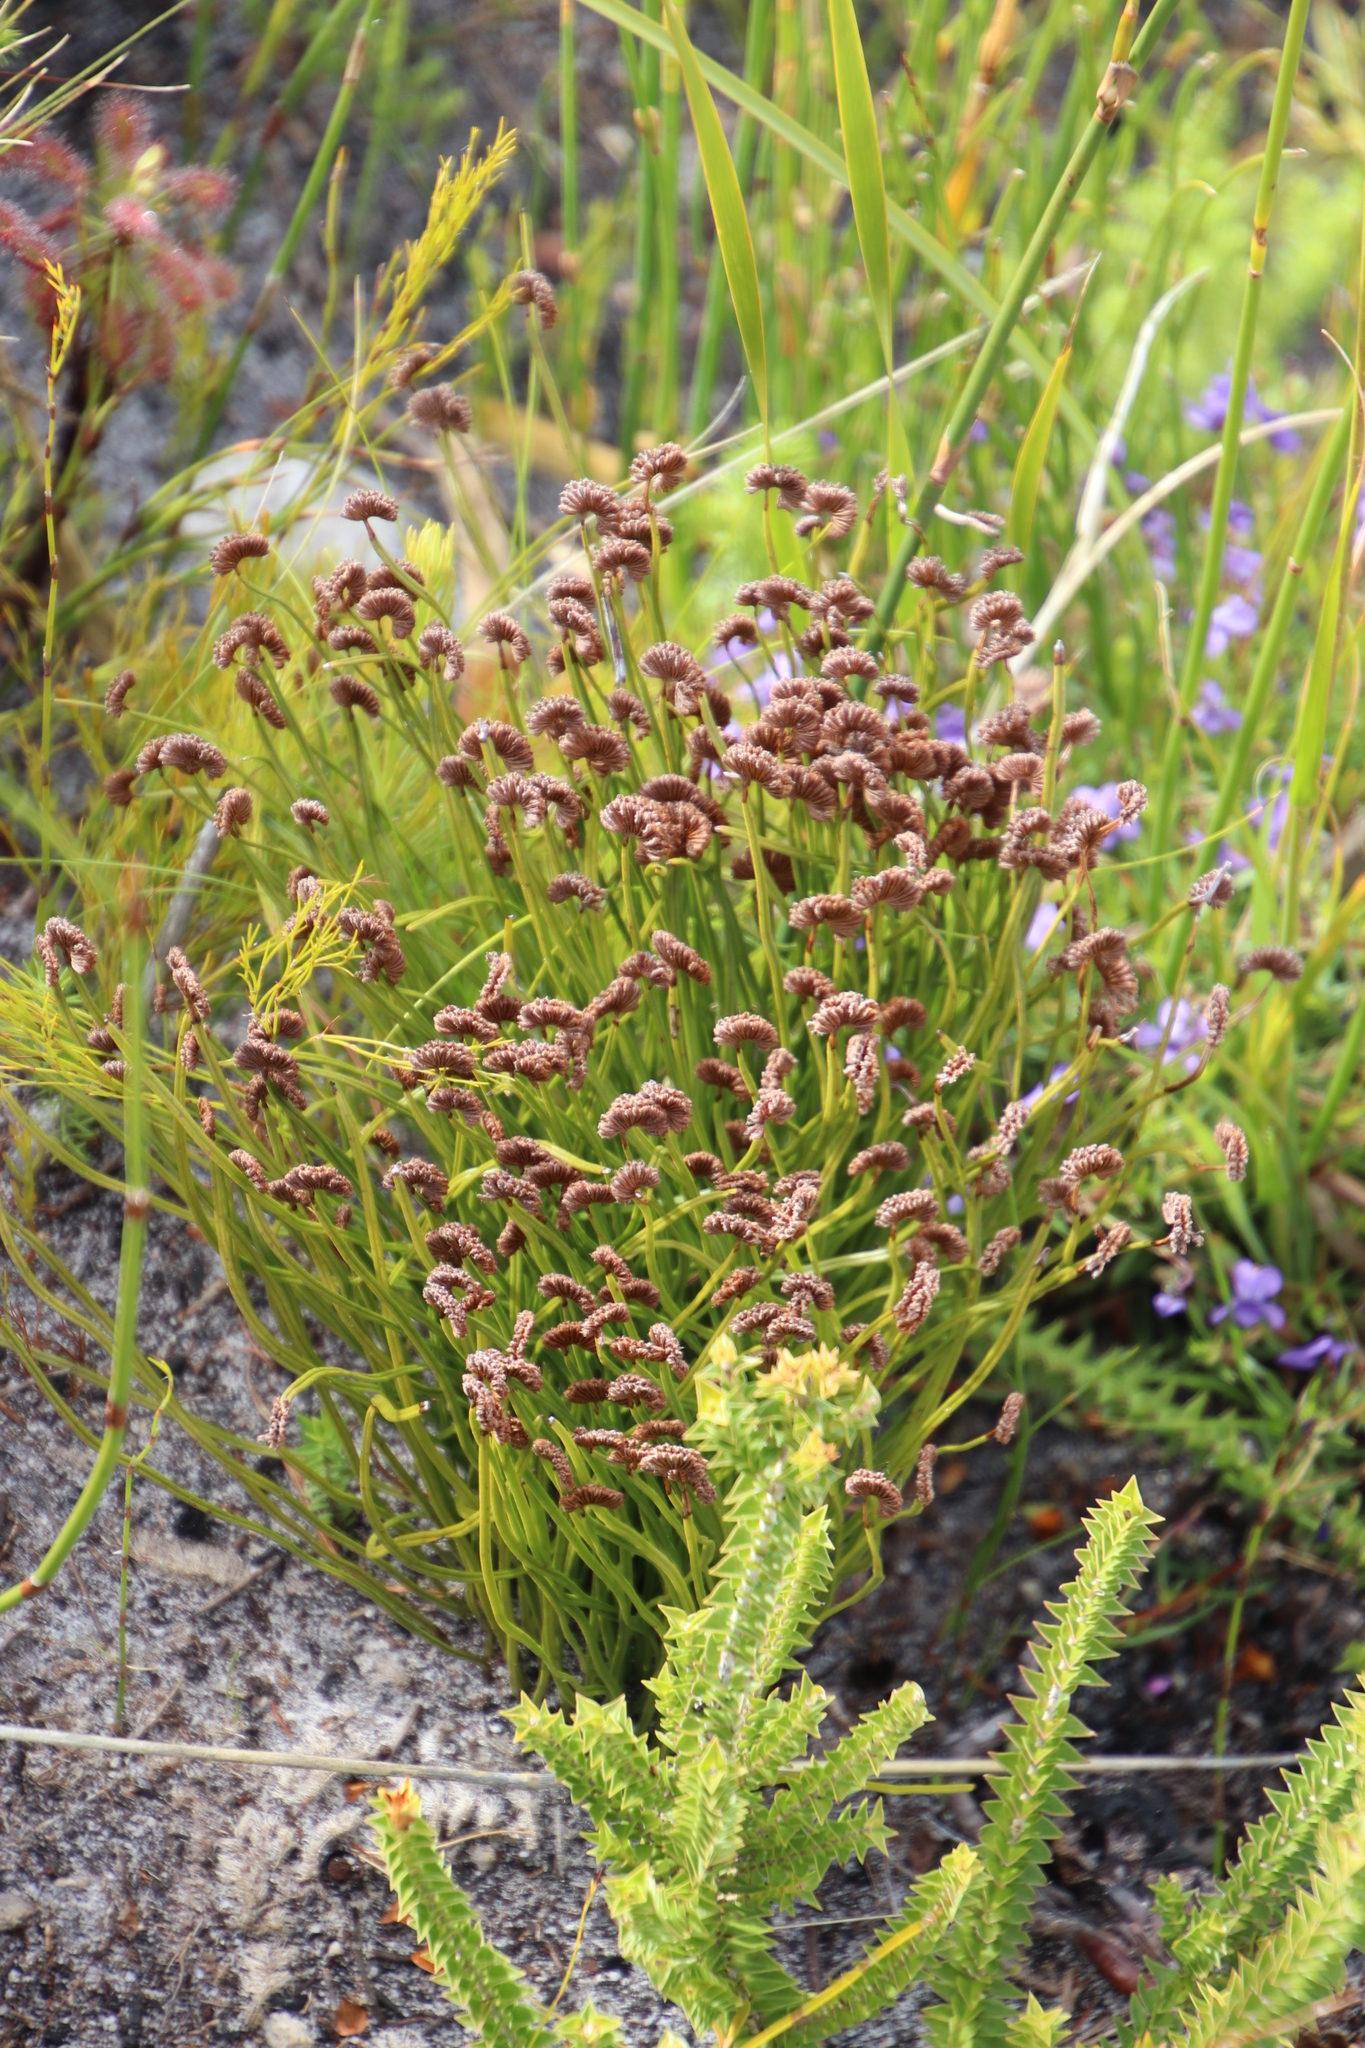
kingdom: Plantae
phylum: Tracheophyta
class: Polypodiopsida
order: Schizaeales
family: Schizaeaceae
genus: Schizaea
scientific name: Schizaea pectinata
